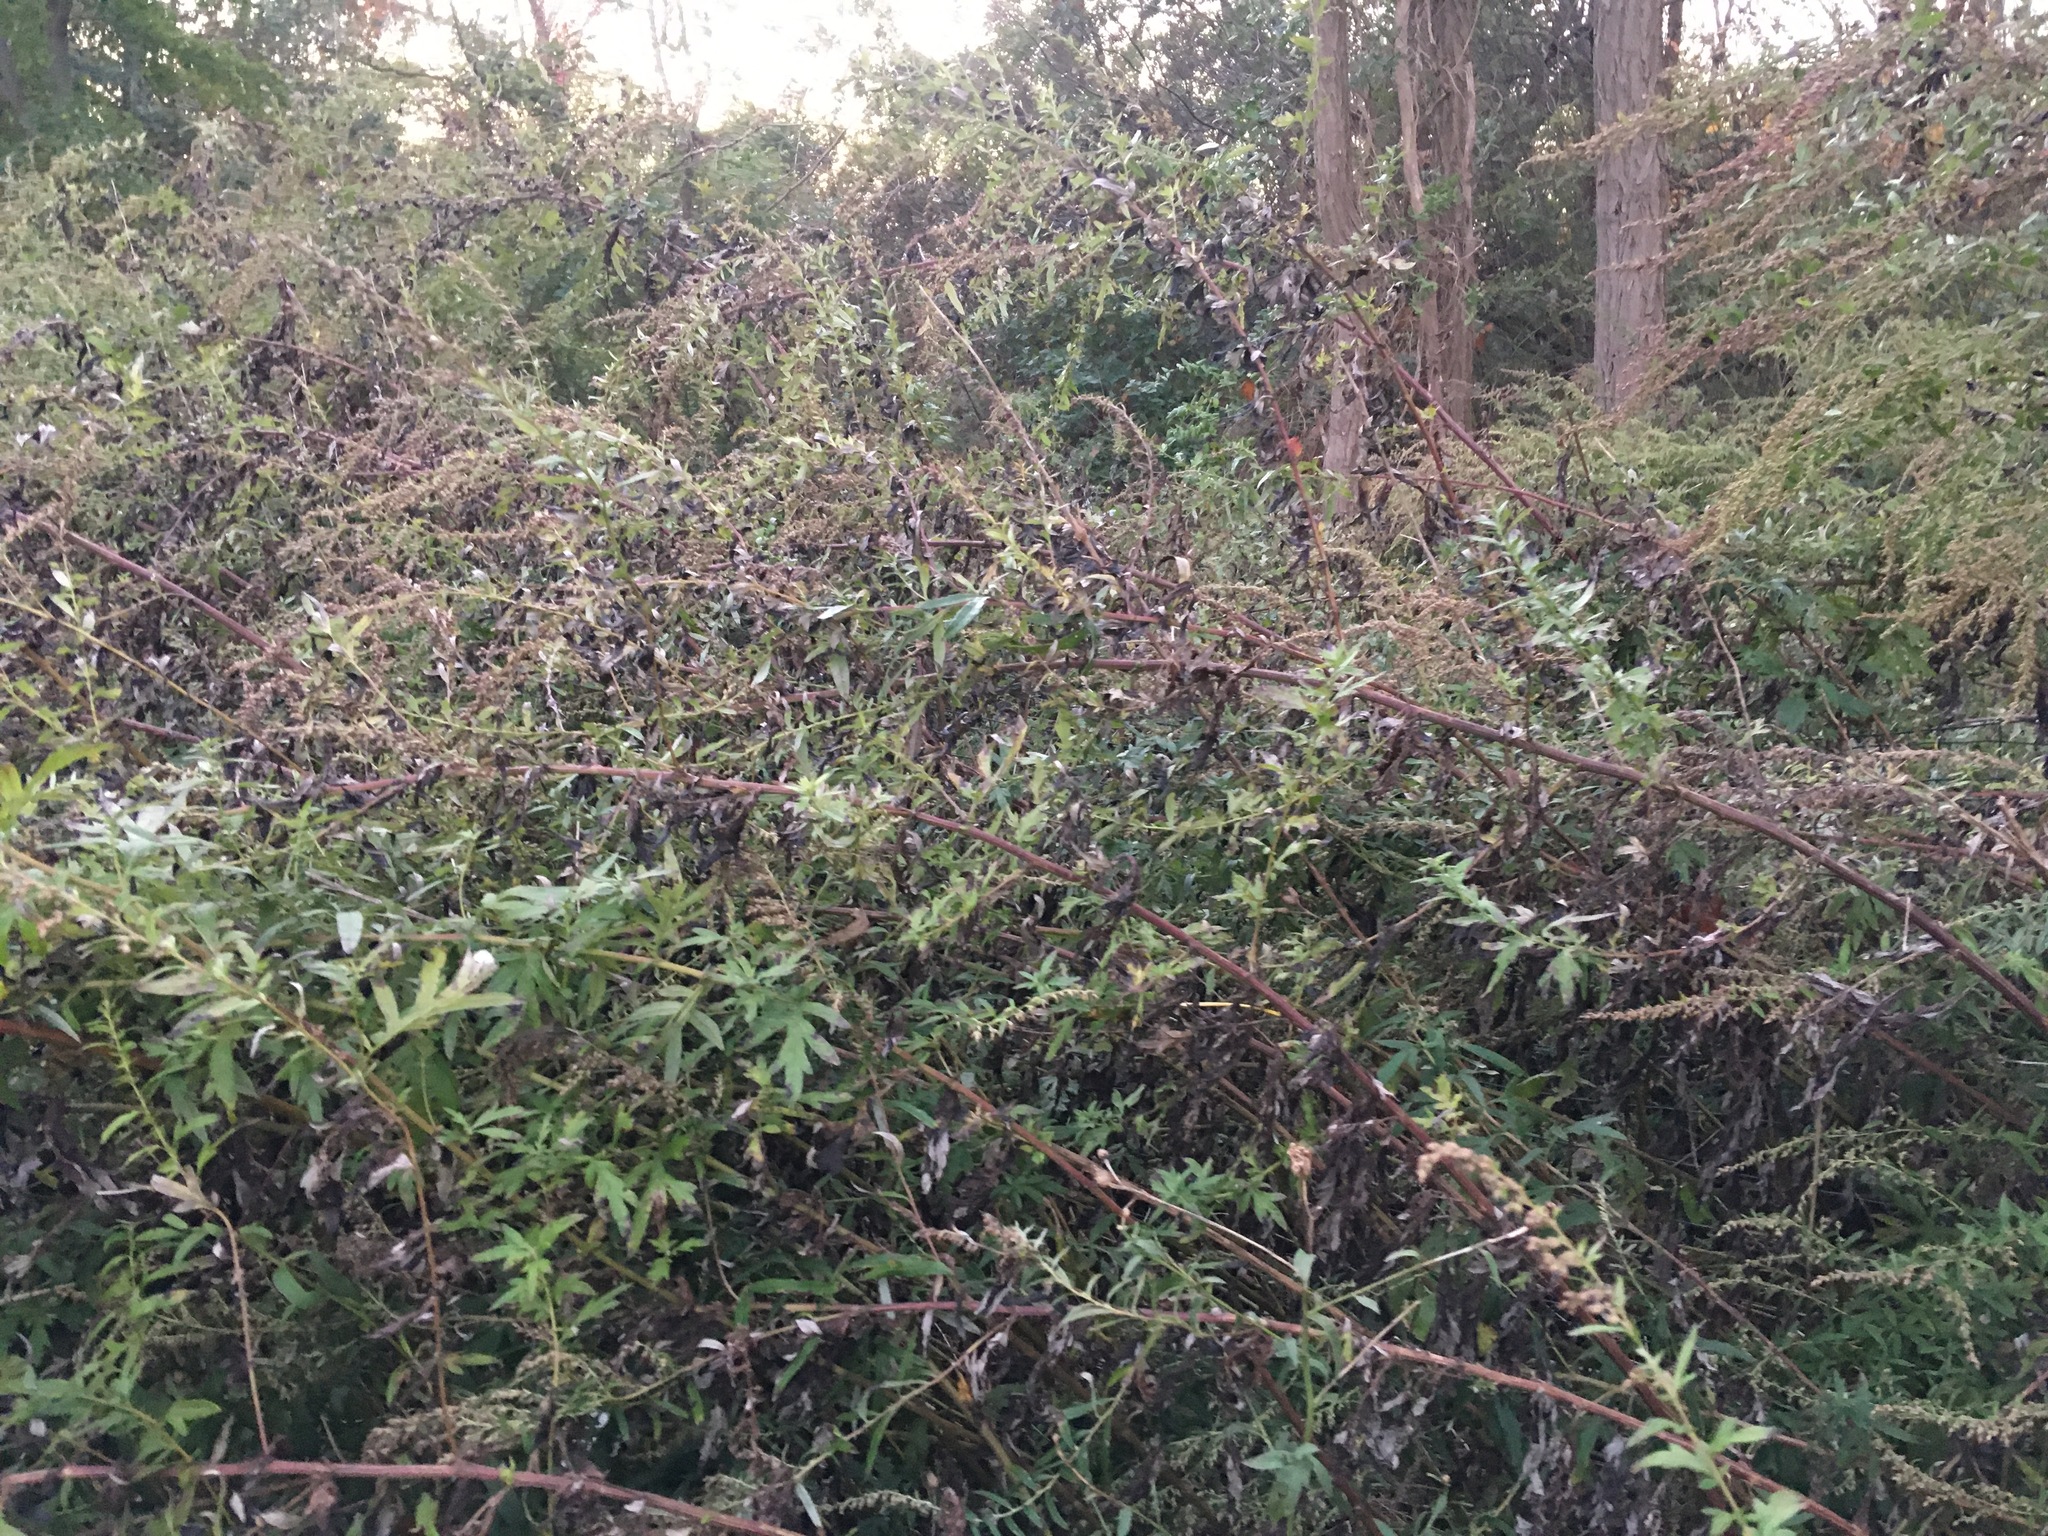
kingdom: Plantae
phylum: Tracheophyta
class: Magnoliopsida
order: Asterales
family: Asteraceae
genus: Artemisia
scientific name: Artemisia vulgaris
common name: Mugwort
